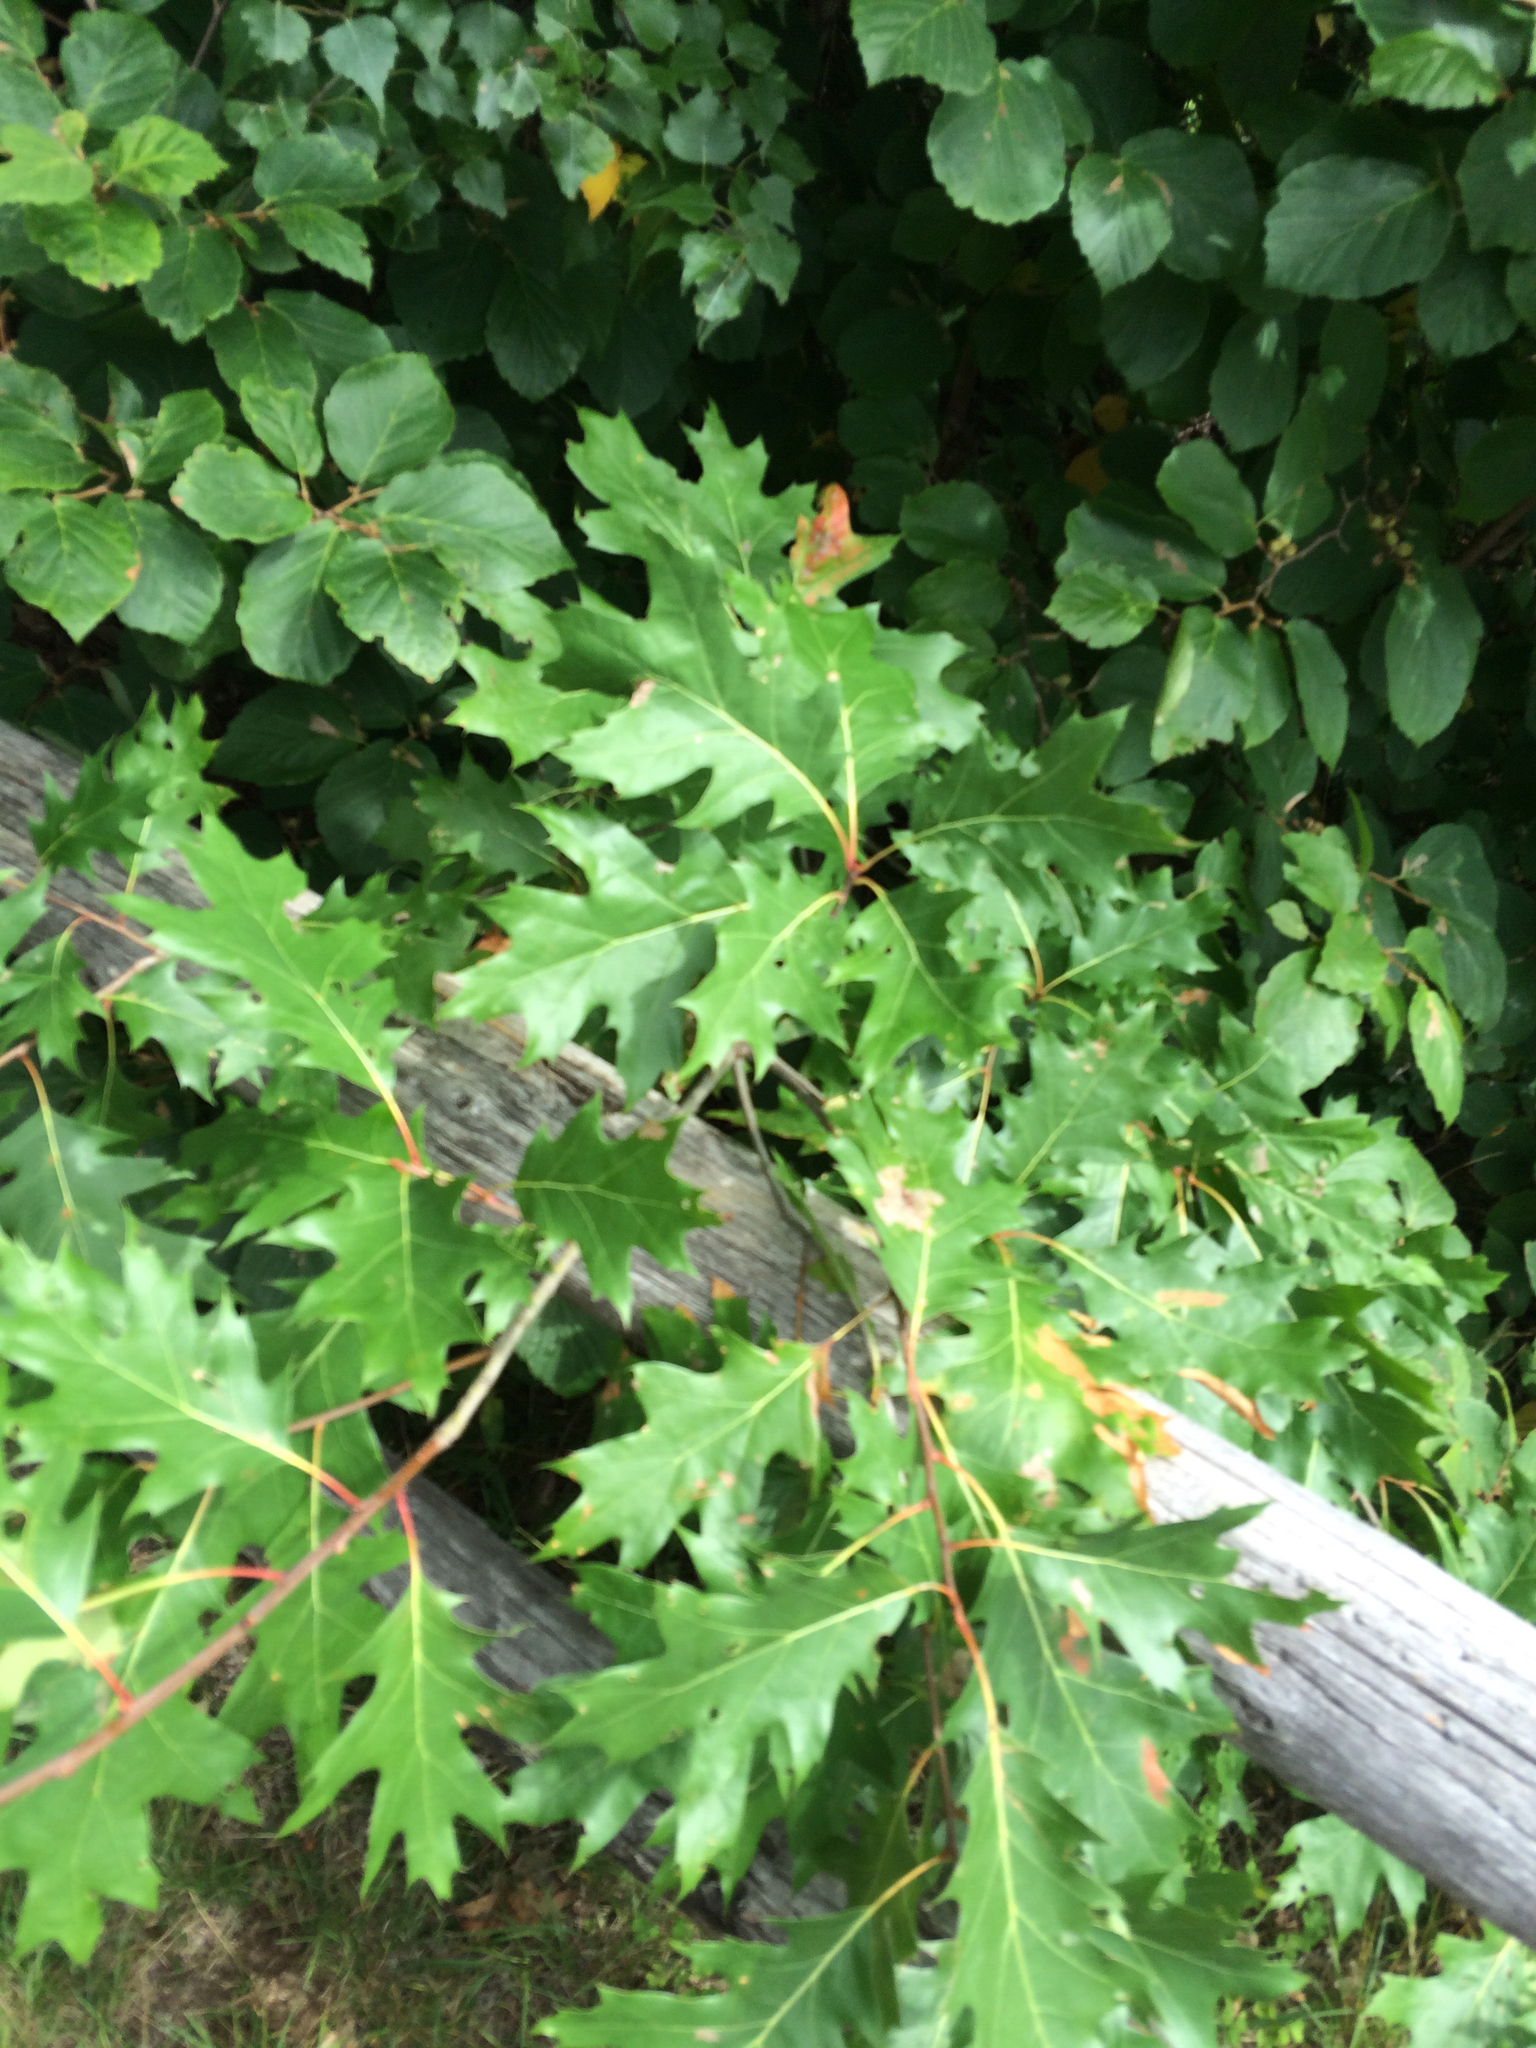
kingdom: Plantae
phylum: Tracheophyta
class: Magnoliopsida
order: Fagales
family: Fagaceae
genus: Quercus
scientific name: Quercus rubra
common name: Red oak
